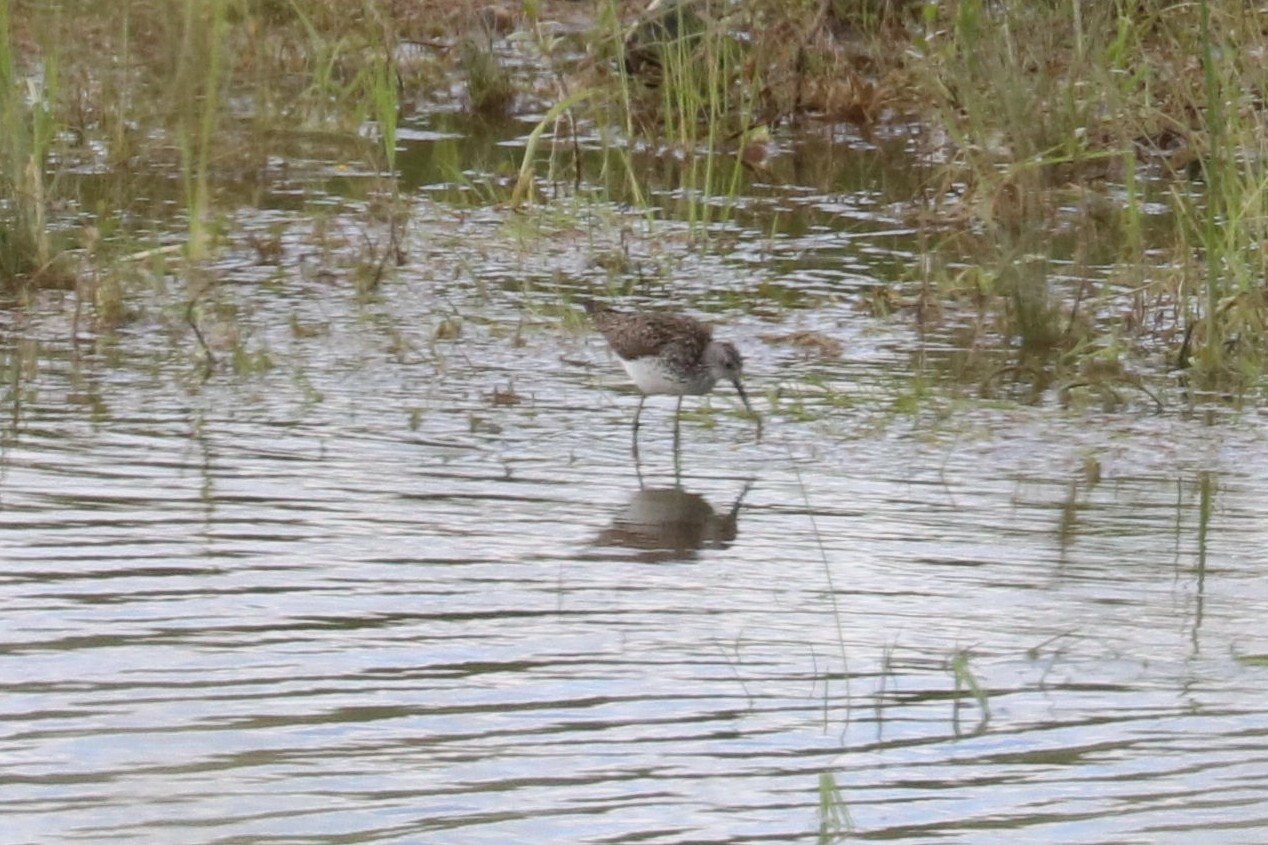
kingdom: Animalia
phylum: Chordata
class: Aves
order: Charadriiformes
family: Scolopacidae
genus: Tringa
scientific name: Tringa stagnatilis
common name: Marsh sandpiper
